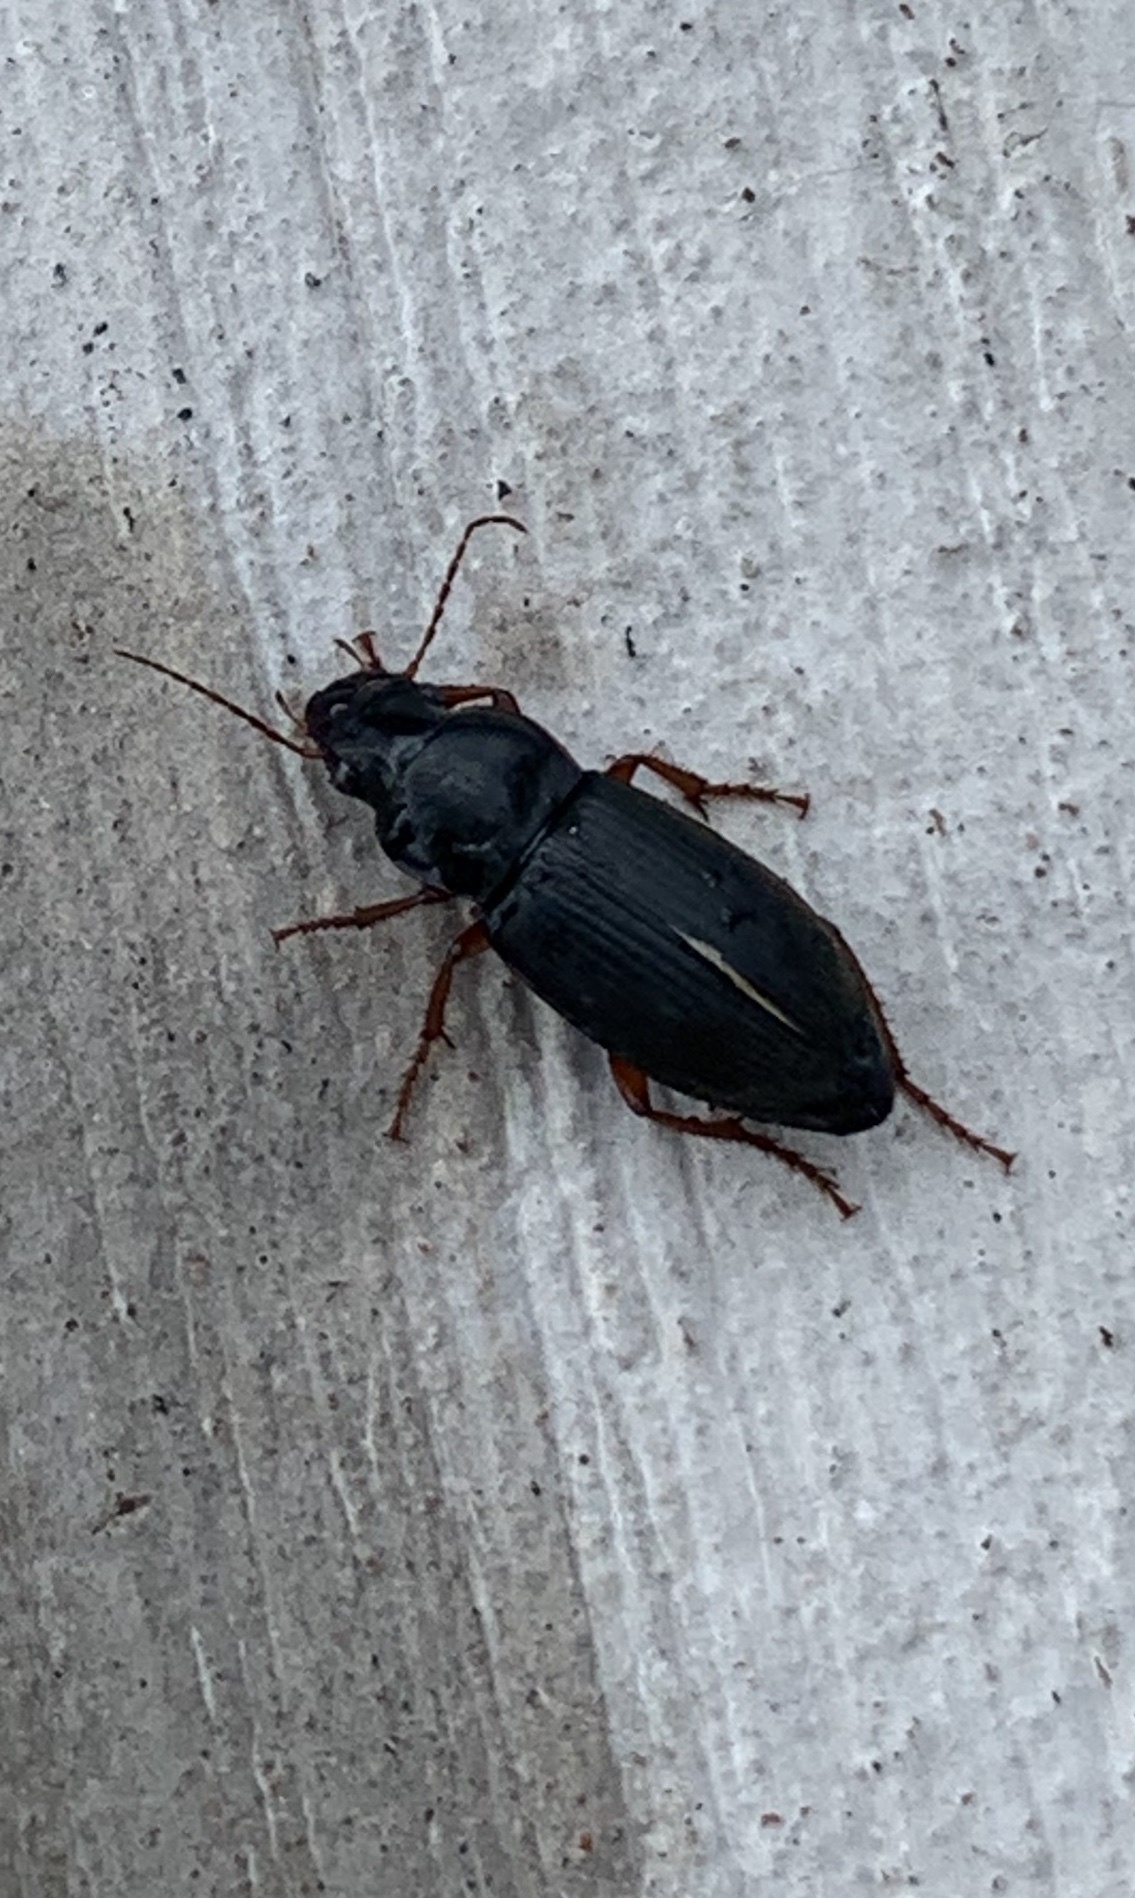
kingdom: Animalia
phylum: Arthropoda
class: Insecta
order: Coleoptera
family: Carabidae
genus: Harpalus
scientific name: Harpalus rufipes
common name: Strawberry harp ground beetle
